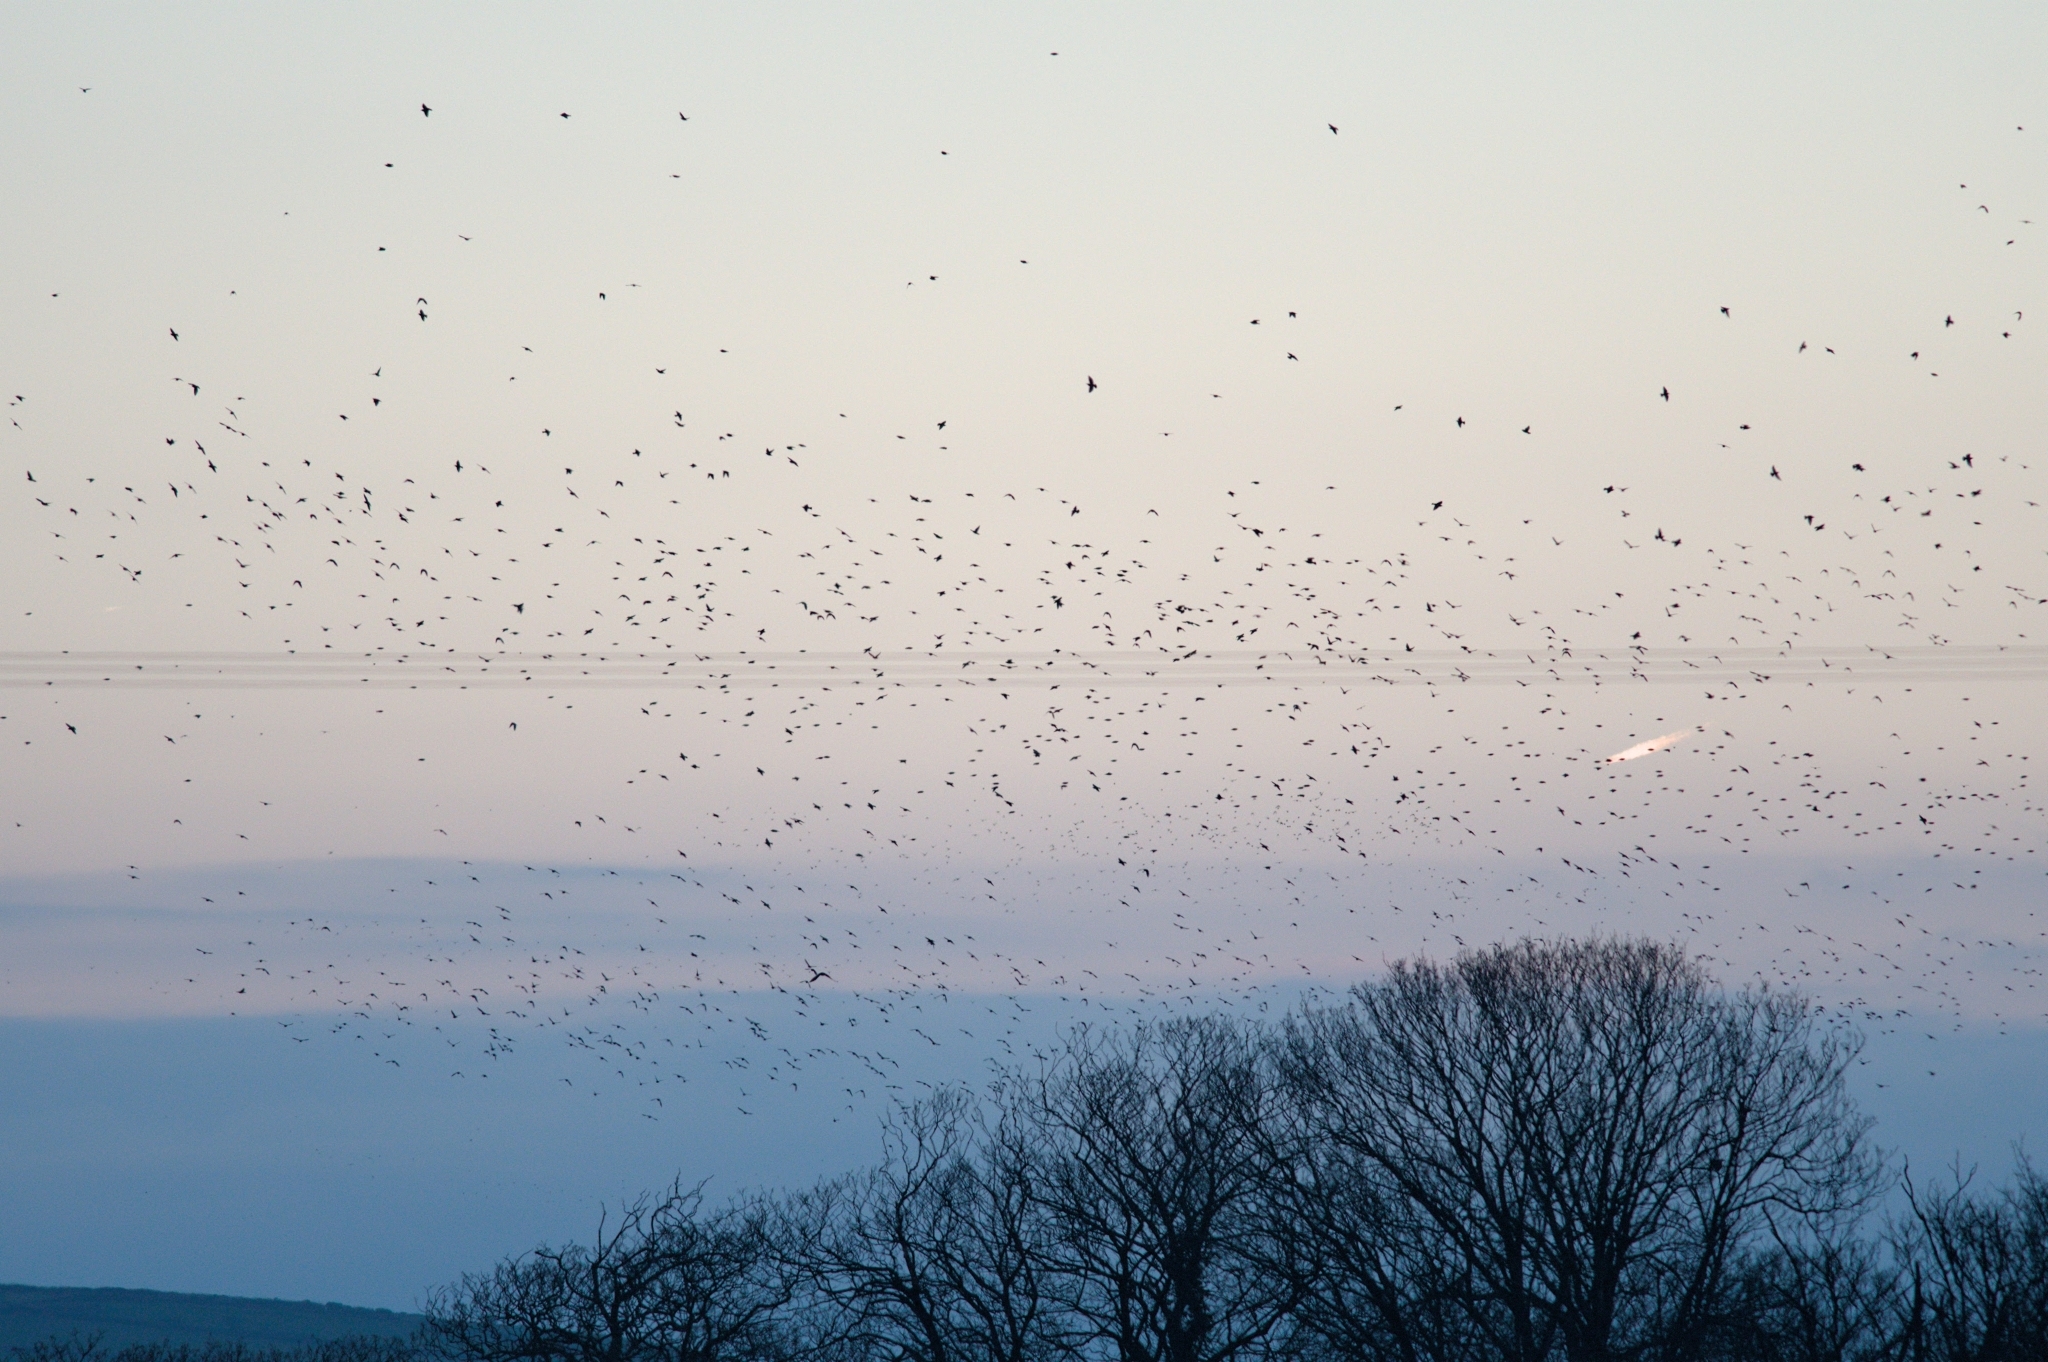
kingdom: Animalia
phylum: Chordata
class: Aves
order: Passeriformes
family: Sturnidae
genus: Sturnus
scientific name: Sturnus vulgaris
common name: Common starling
